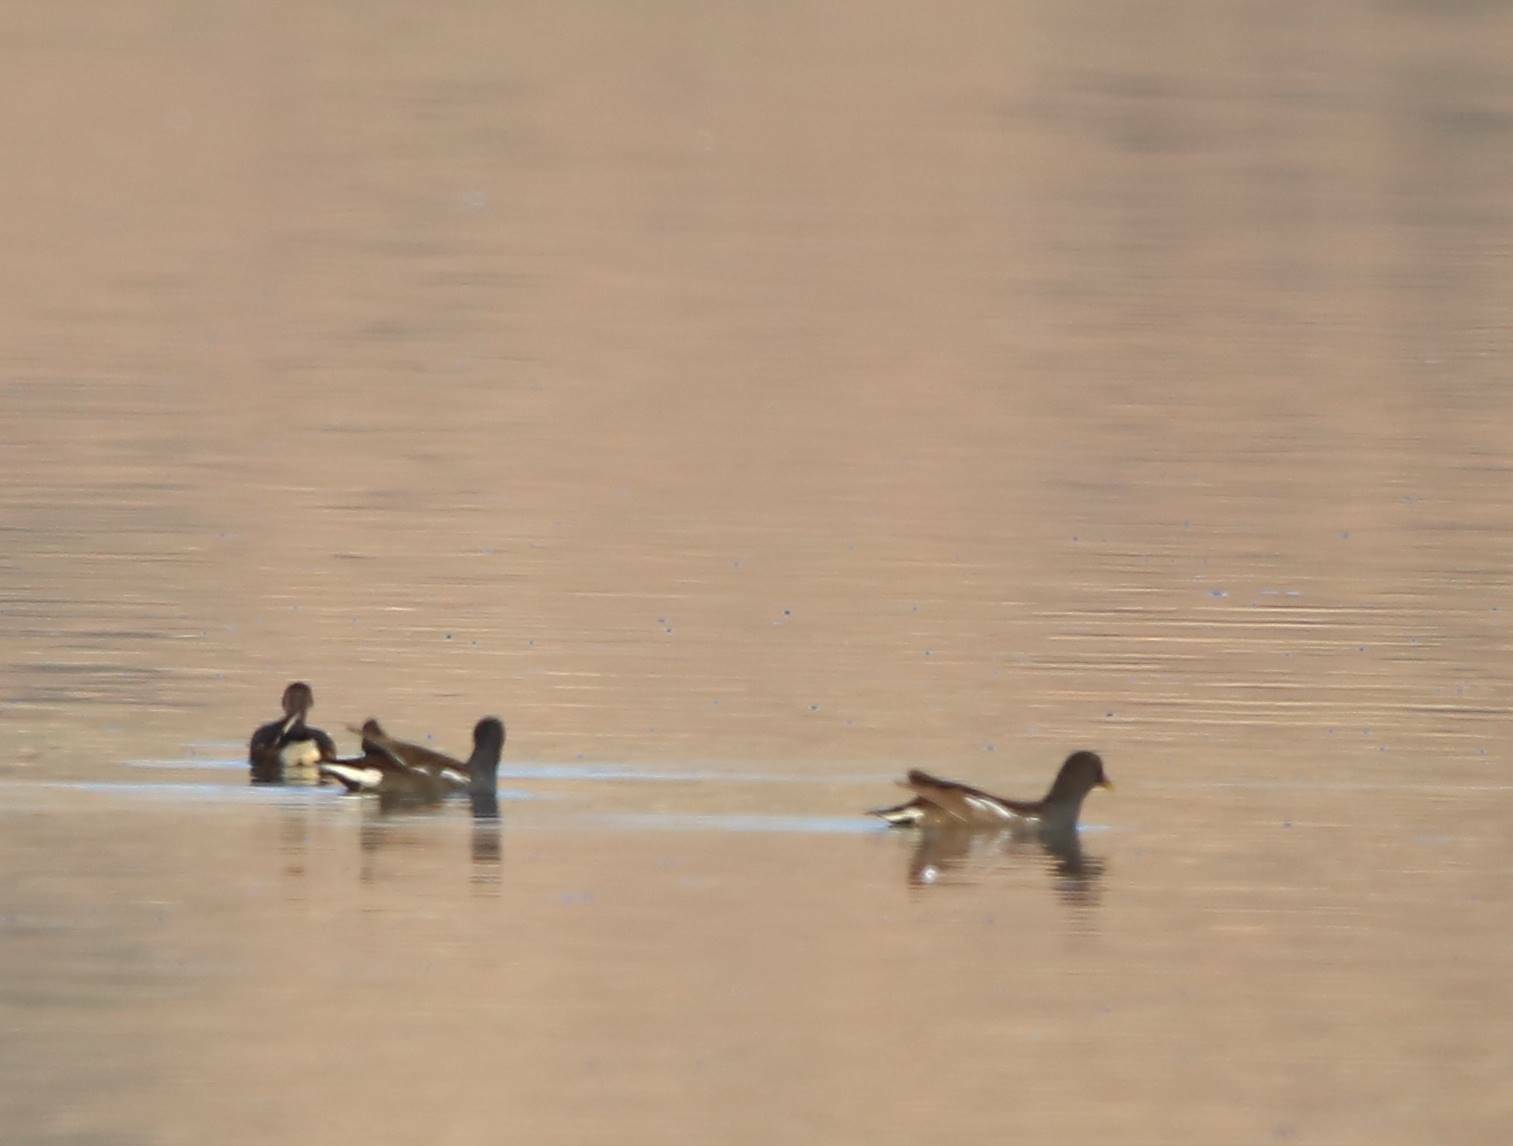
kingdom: Animalia
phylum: Chordata
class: Aves
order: Gruiformes
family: Rallidae
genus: Gallinula
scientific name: Gallinula chloropus
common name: Common moorhen
